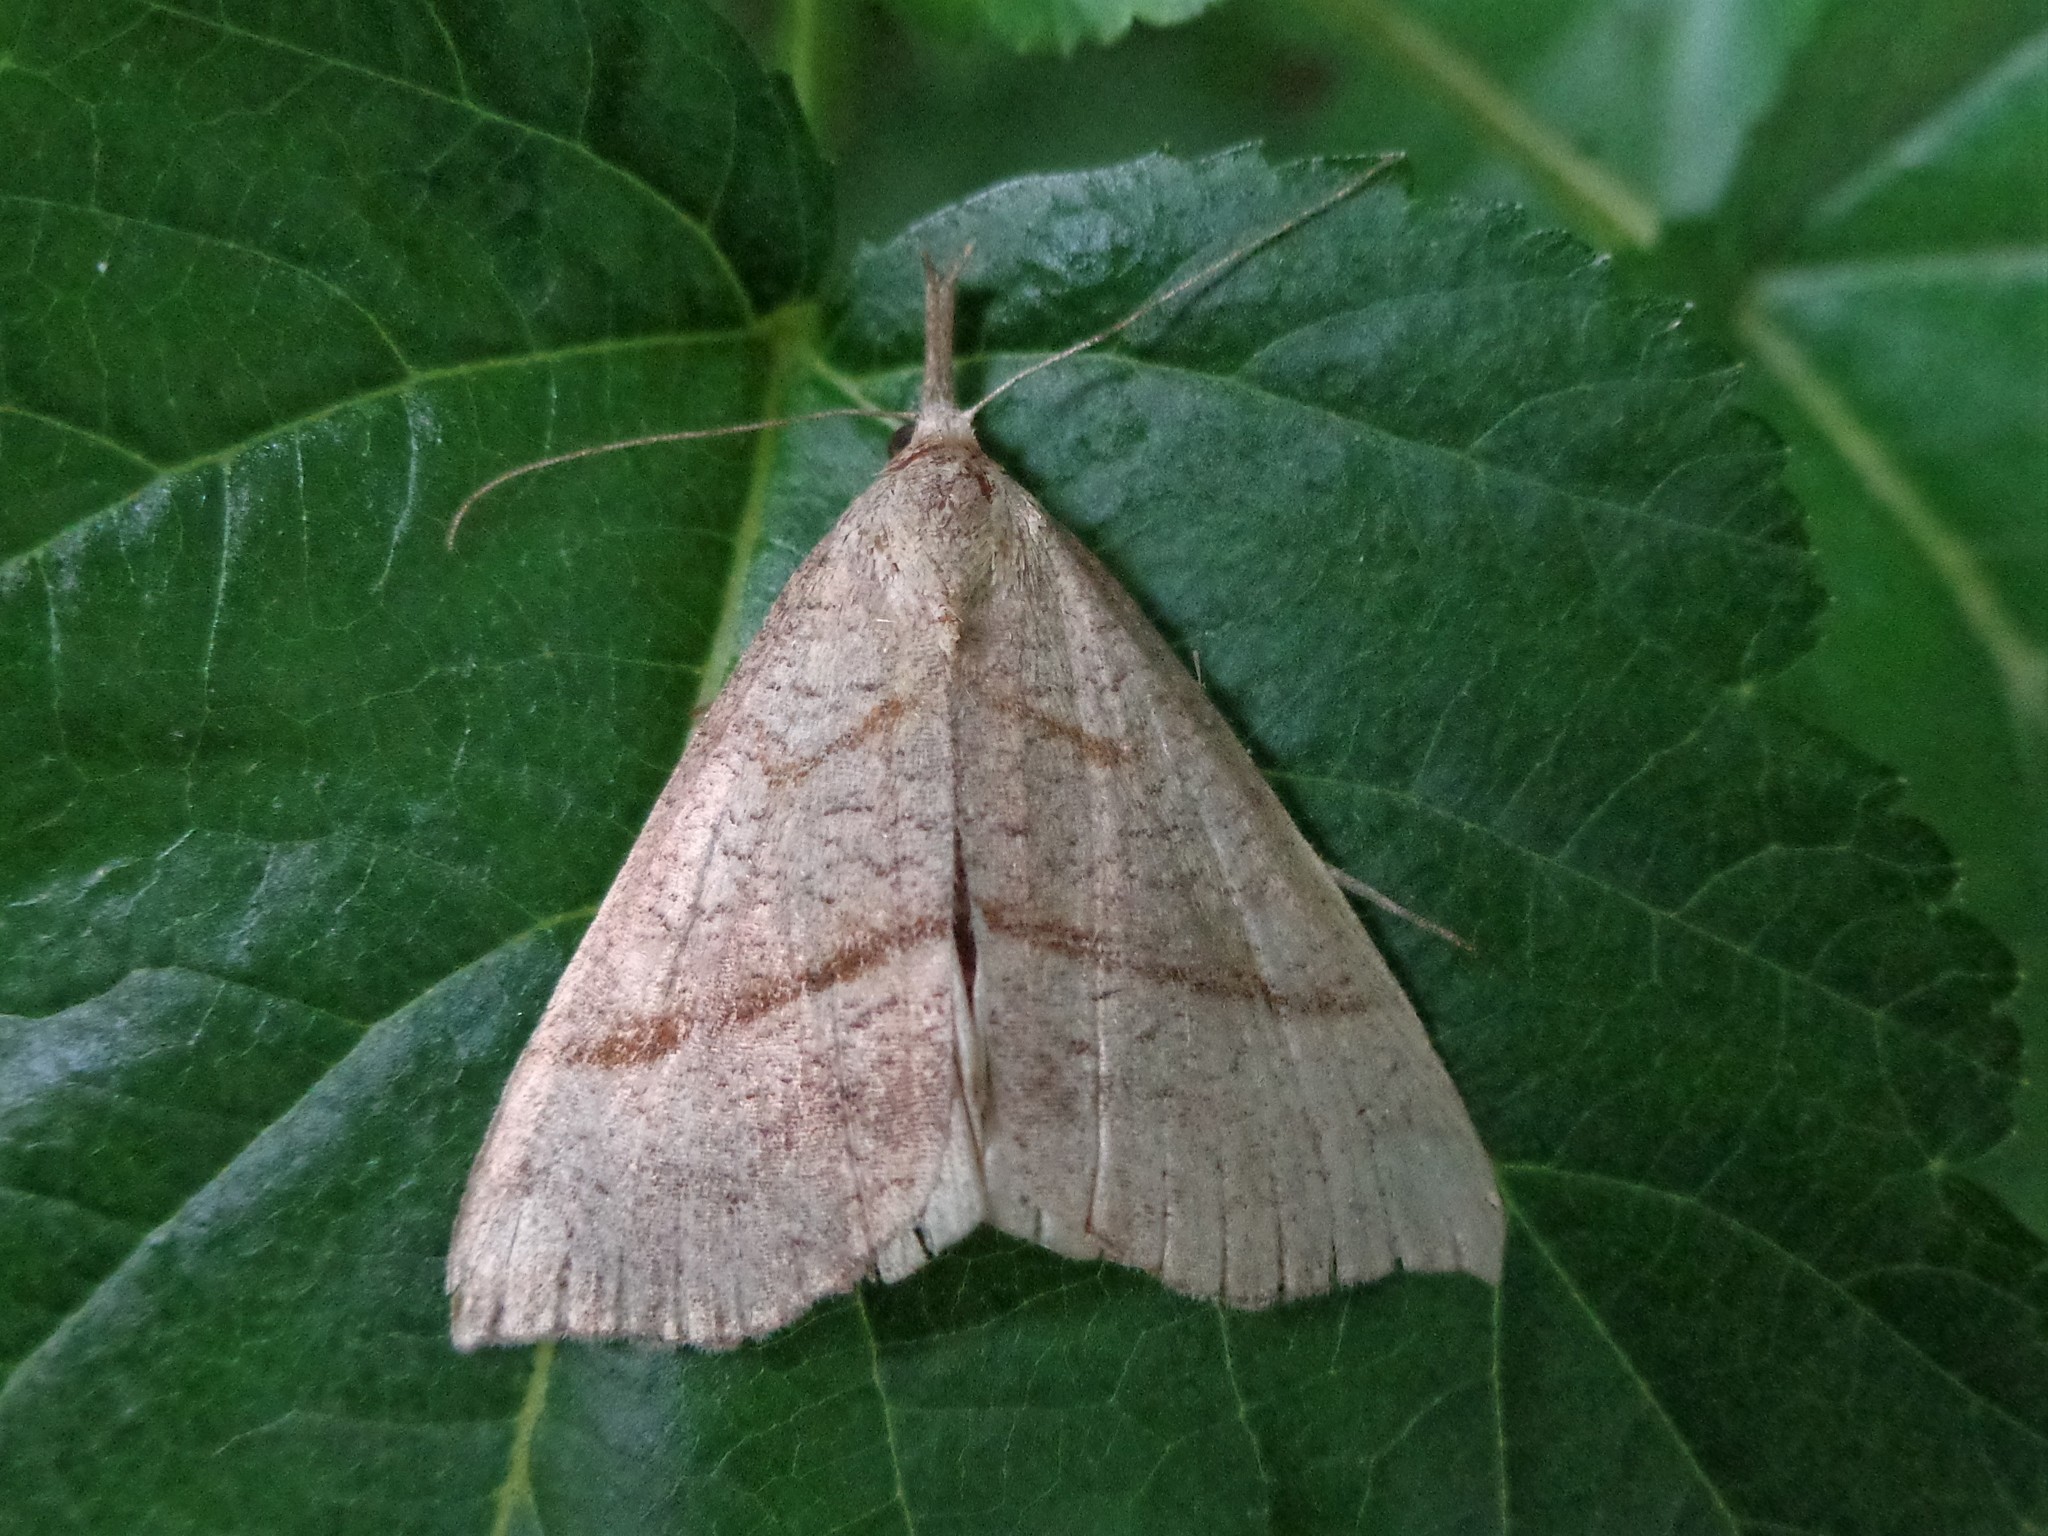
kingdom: Animalia
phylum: Arthropoda
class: Insecta
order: Lepidoptera
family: Erebidae
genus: Hypena
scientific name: Hypena proboscidalis
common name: Snout
